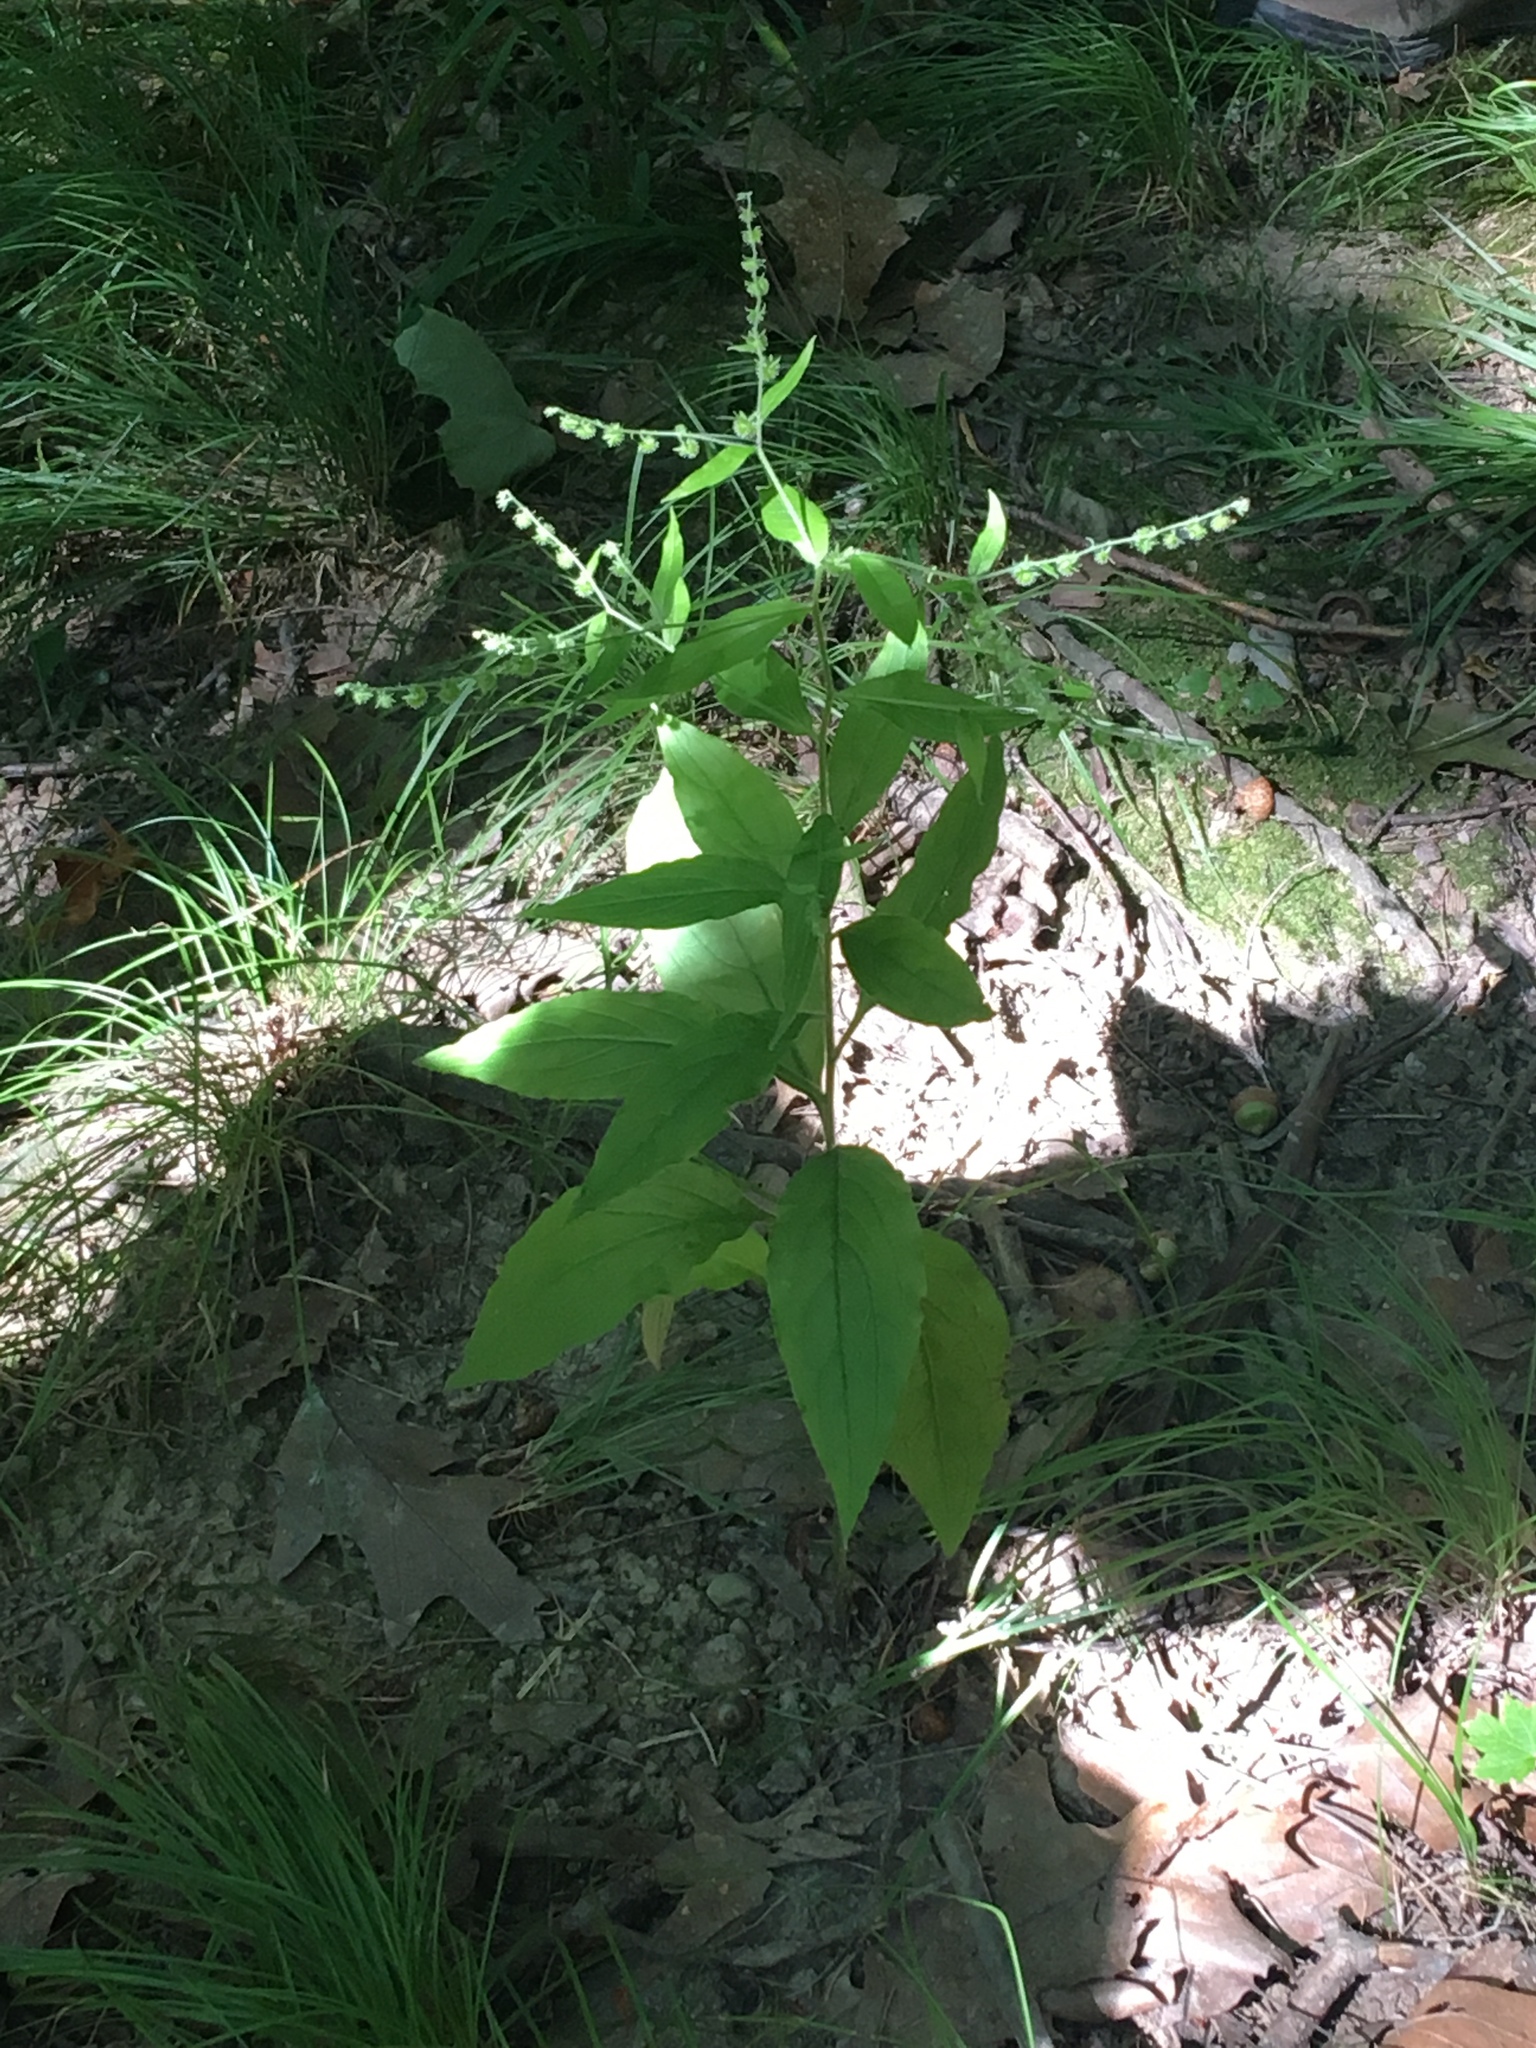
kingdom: Plantae
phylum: Tracheophyta
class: Magnoliopsida
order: Boraginales
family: Boraginaceae
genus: Hackelia
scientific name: Hackelia virginiana
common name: Beggar's-lice
